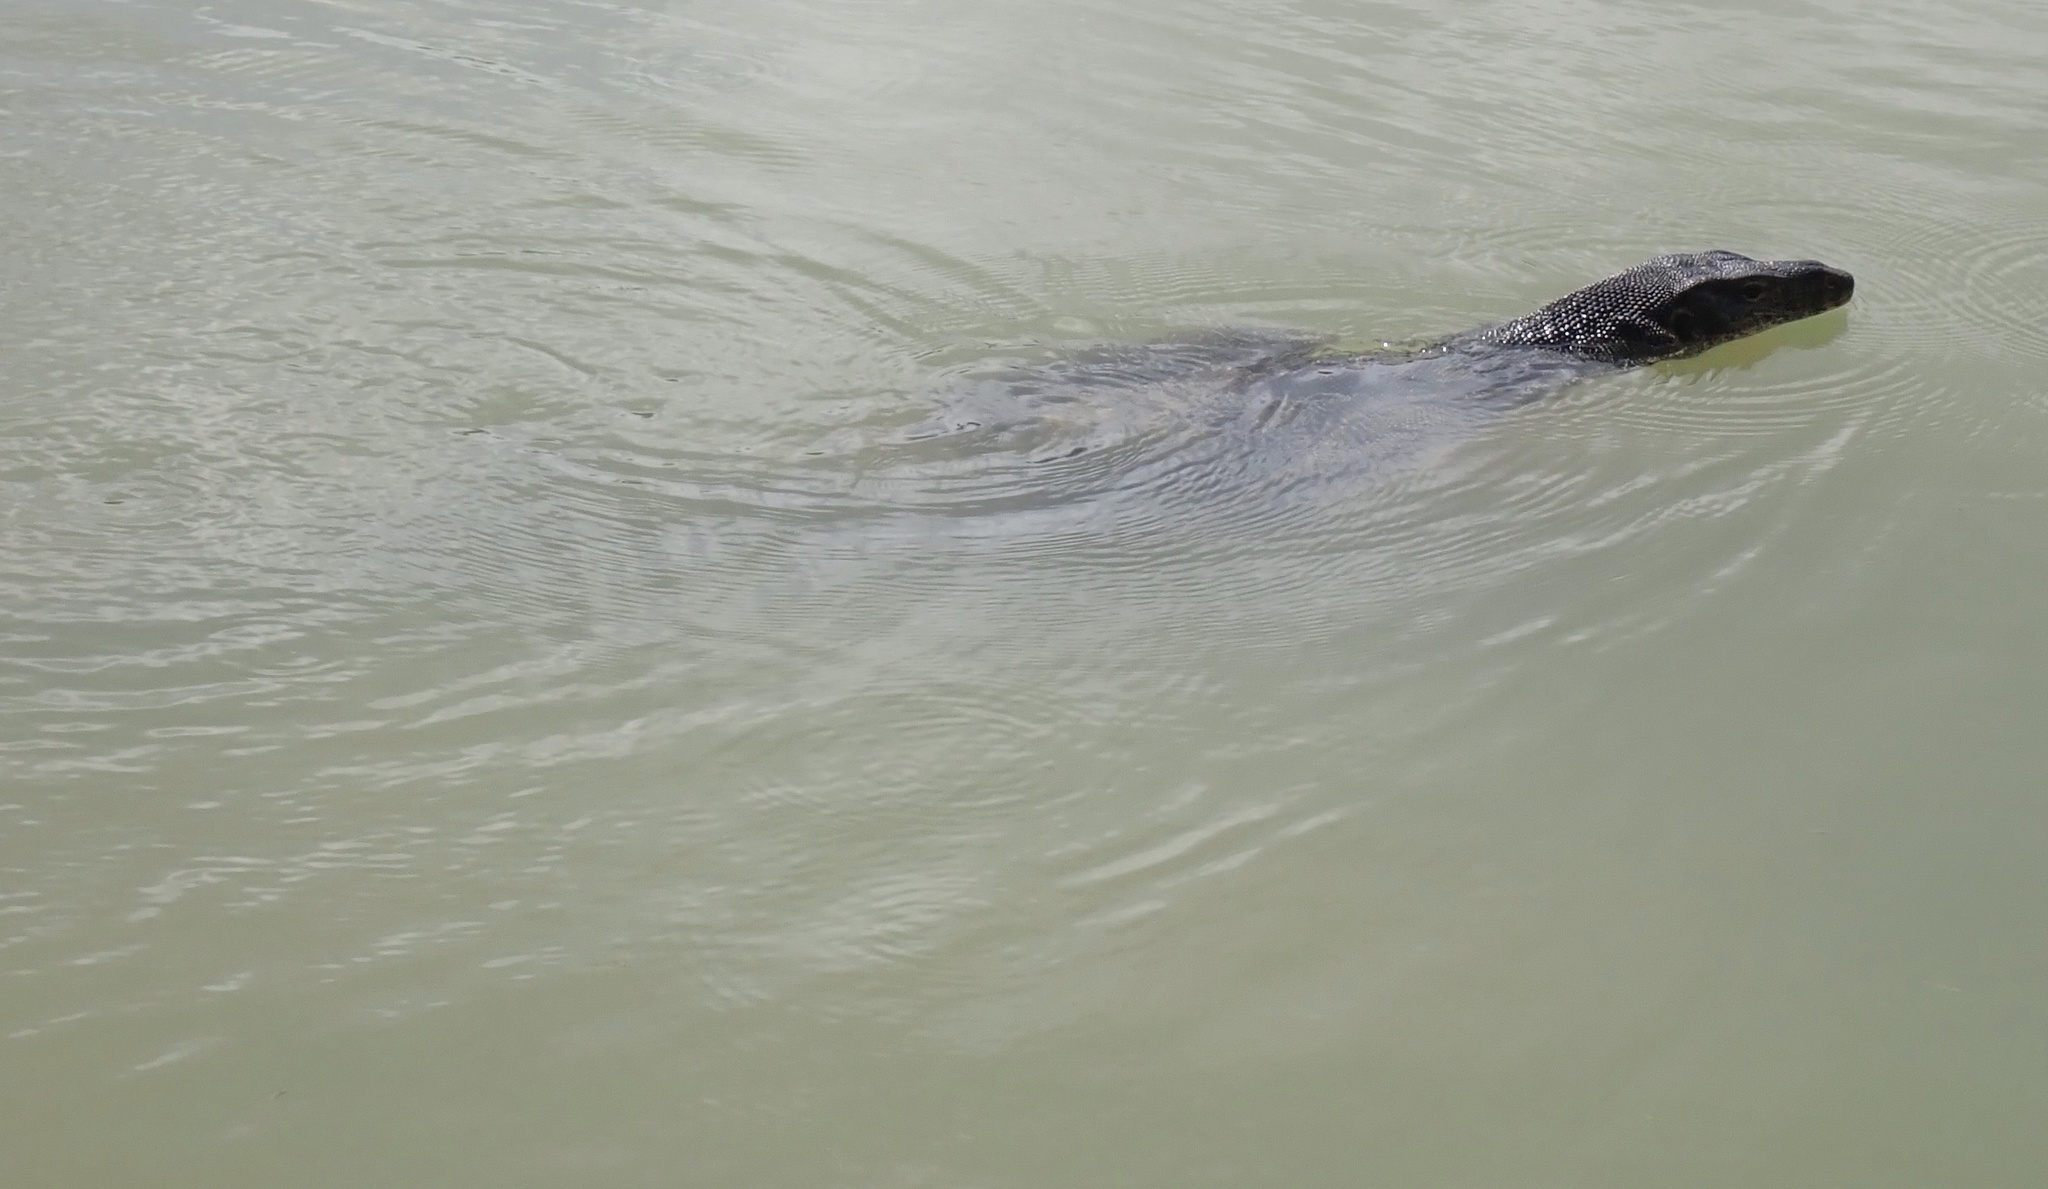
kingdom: Animalia
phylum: Chordata
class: Squamata
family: Varanidae
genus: Varanus
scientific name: Varanus salvator
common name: Common water monitor
